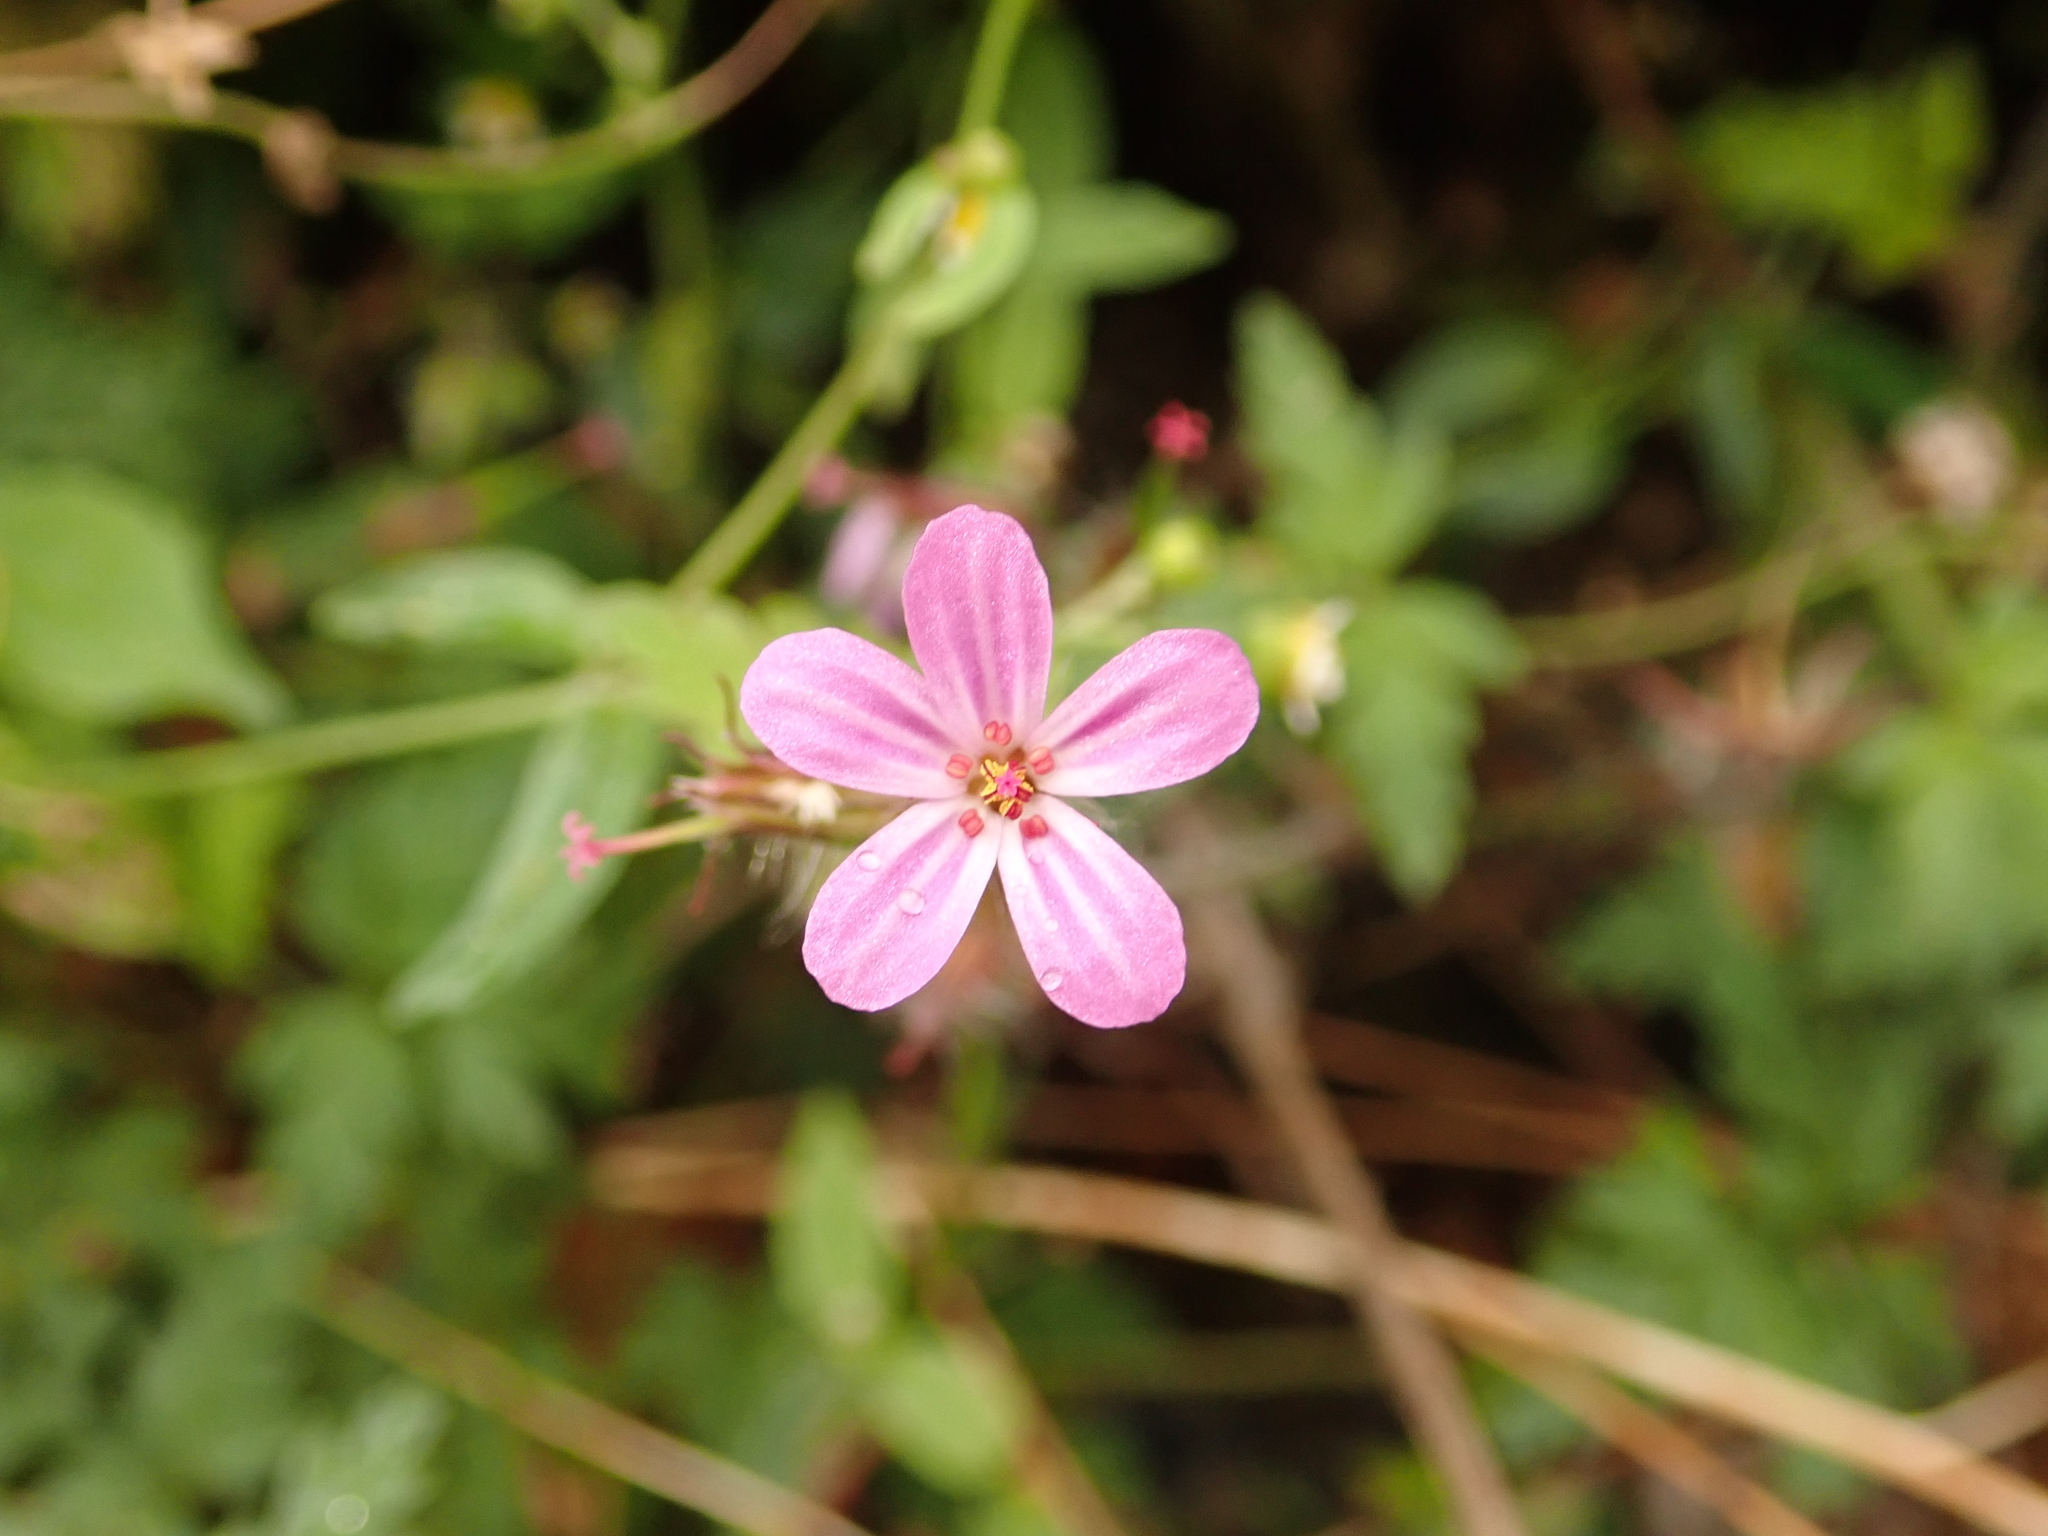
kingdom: Plantae
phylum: Tracheophyta
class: Magnoliopsida
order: Geraniales
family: Geraniaceae
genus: Geranium
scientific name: Geranium robertianum
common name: Herb-robert
